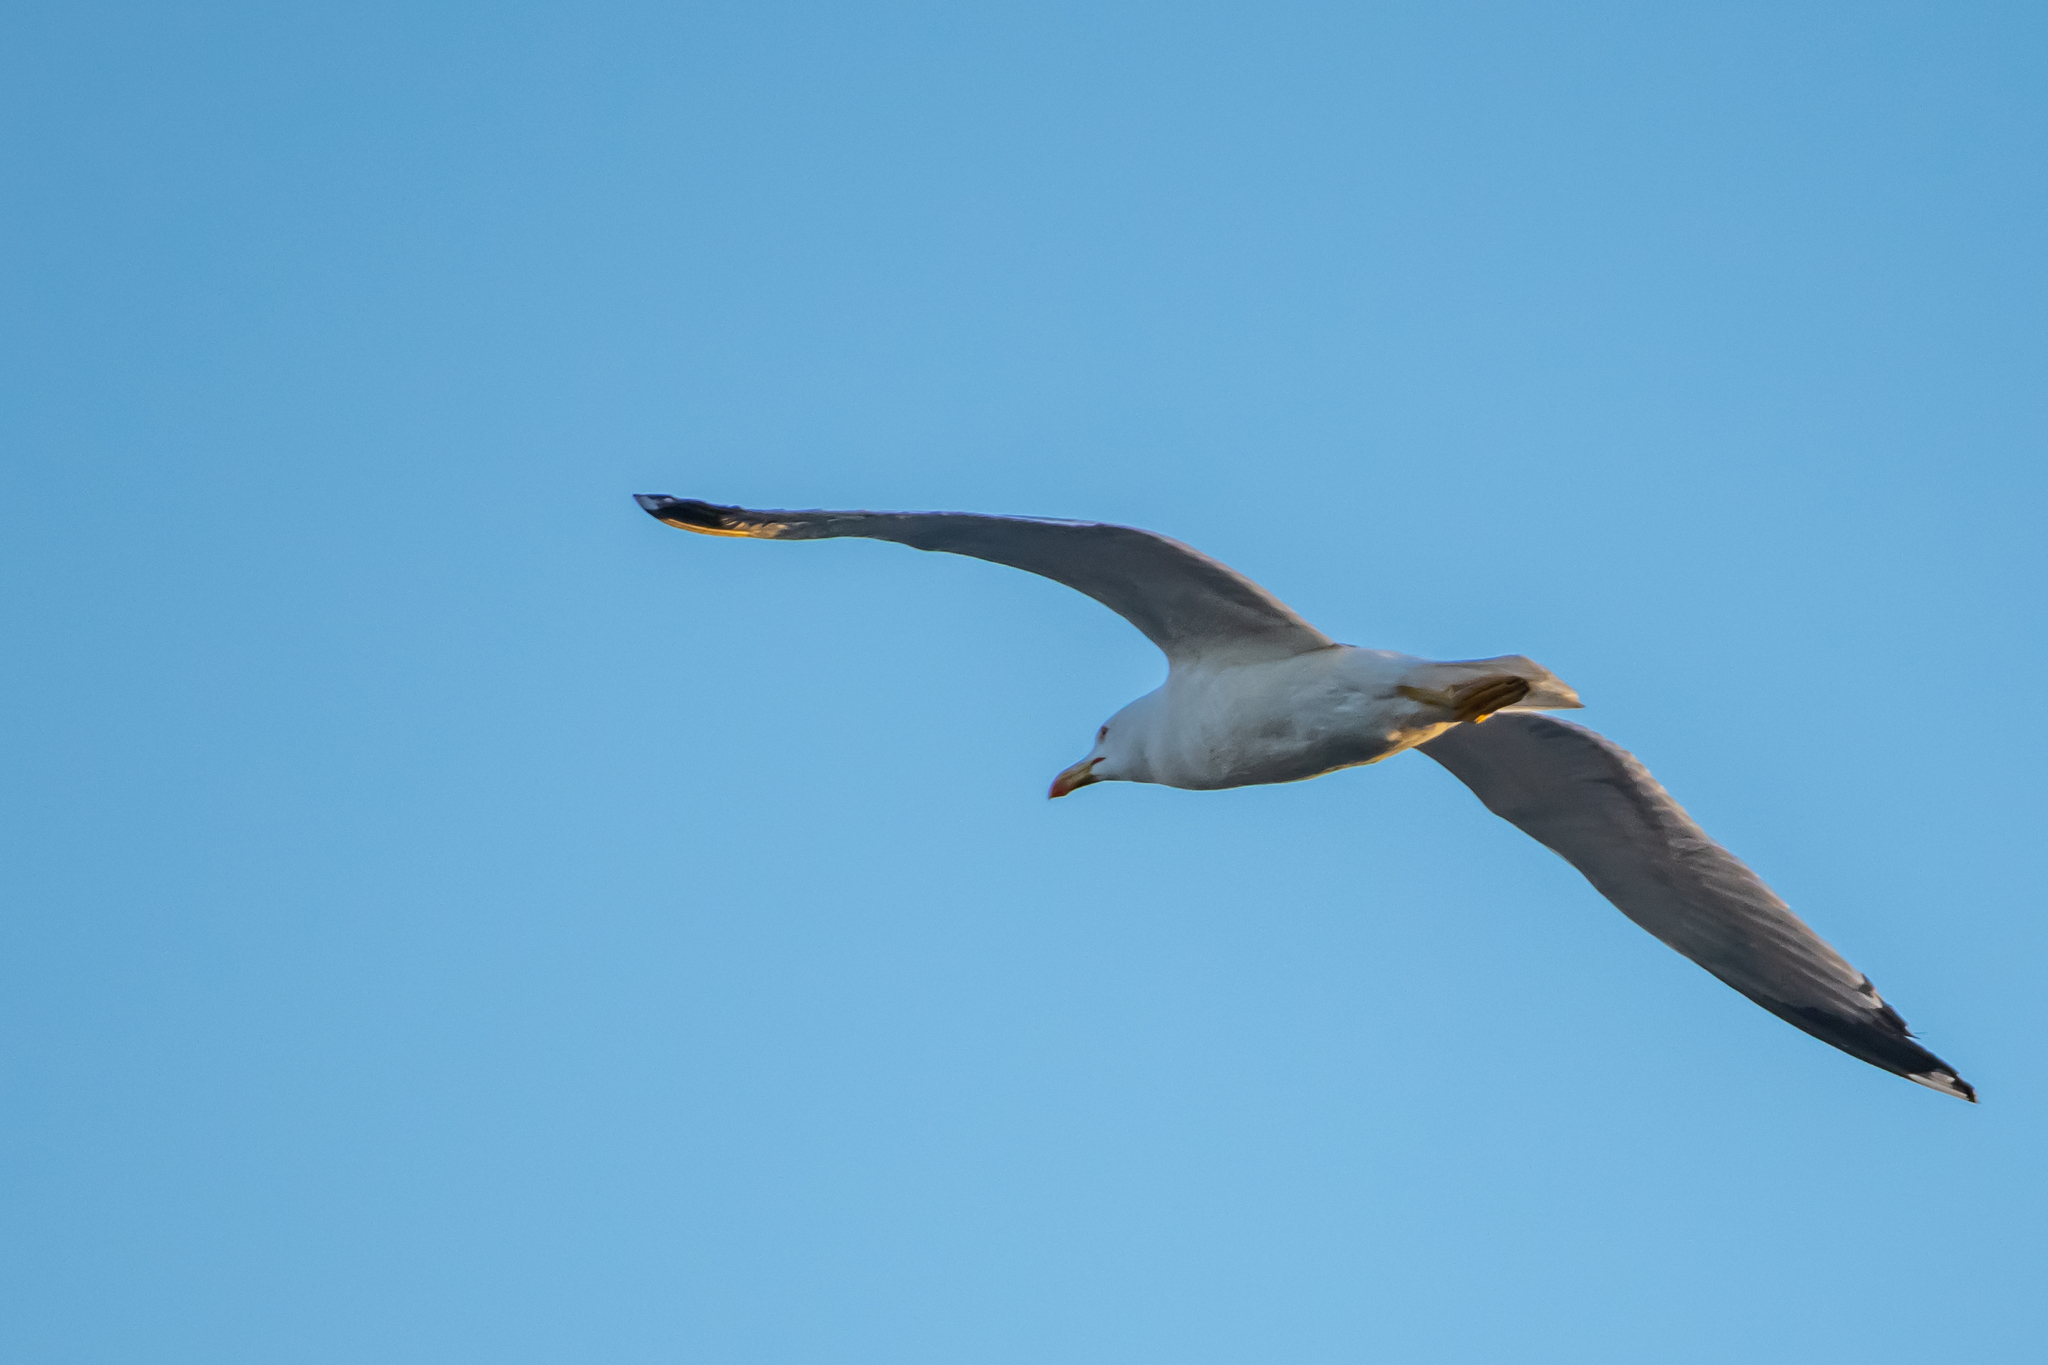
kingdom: Animalia
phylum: Chordata
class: Aves
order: Charadriiformes
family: Laridae
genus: Larus
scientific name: Larus michahellis
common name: Yellow-legged gull
